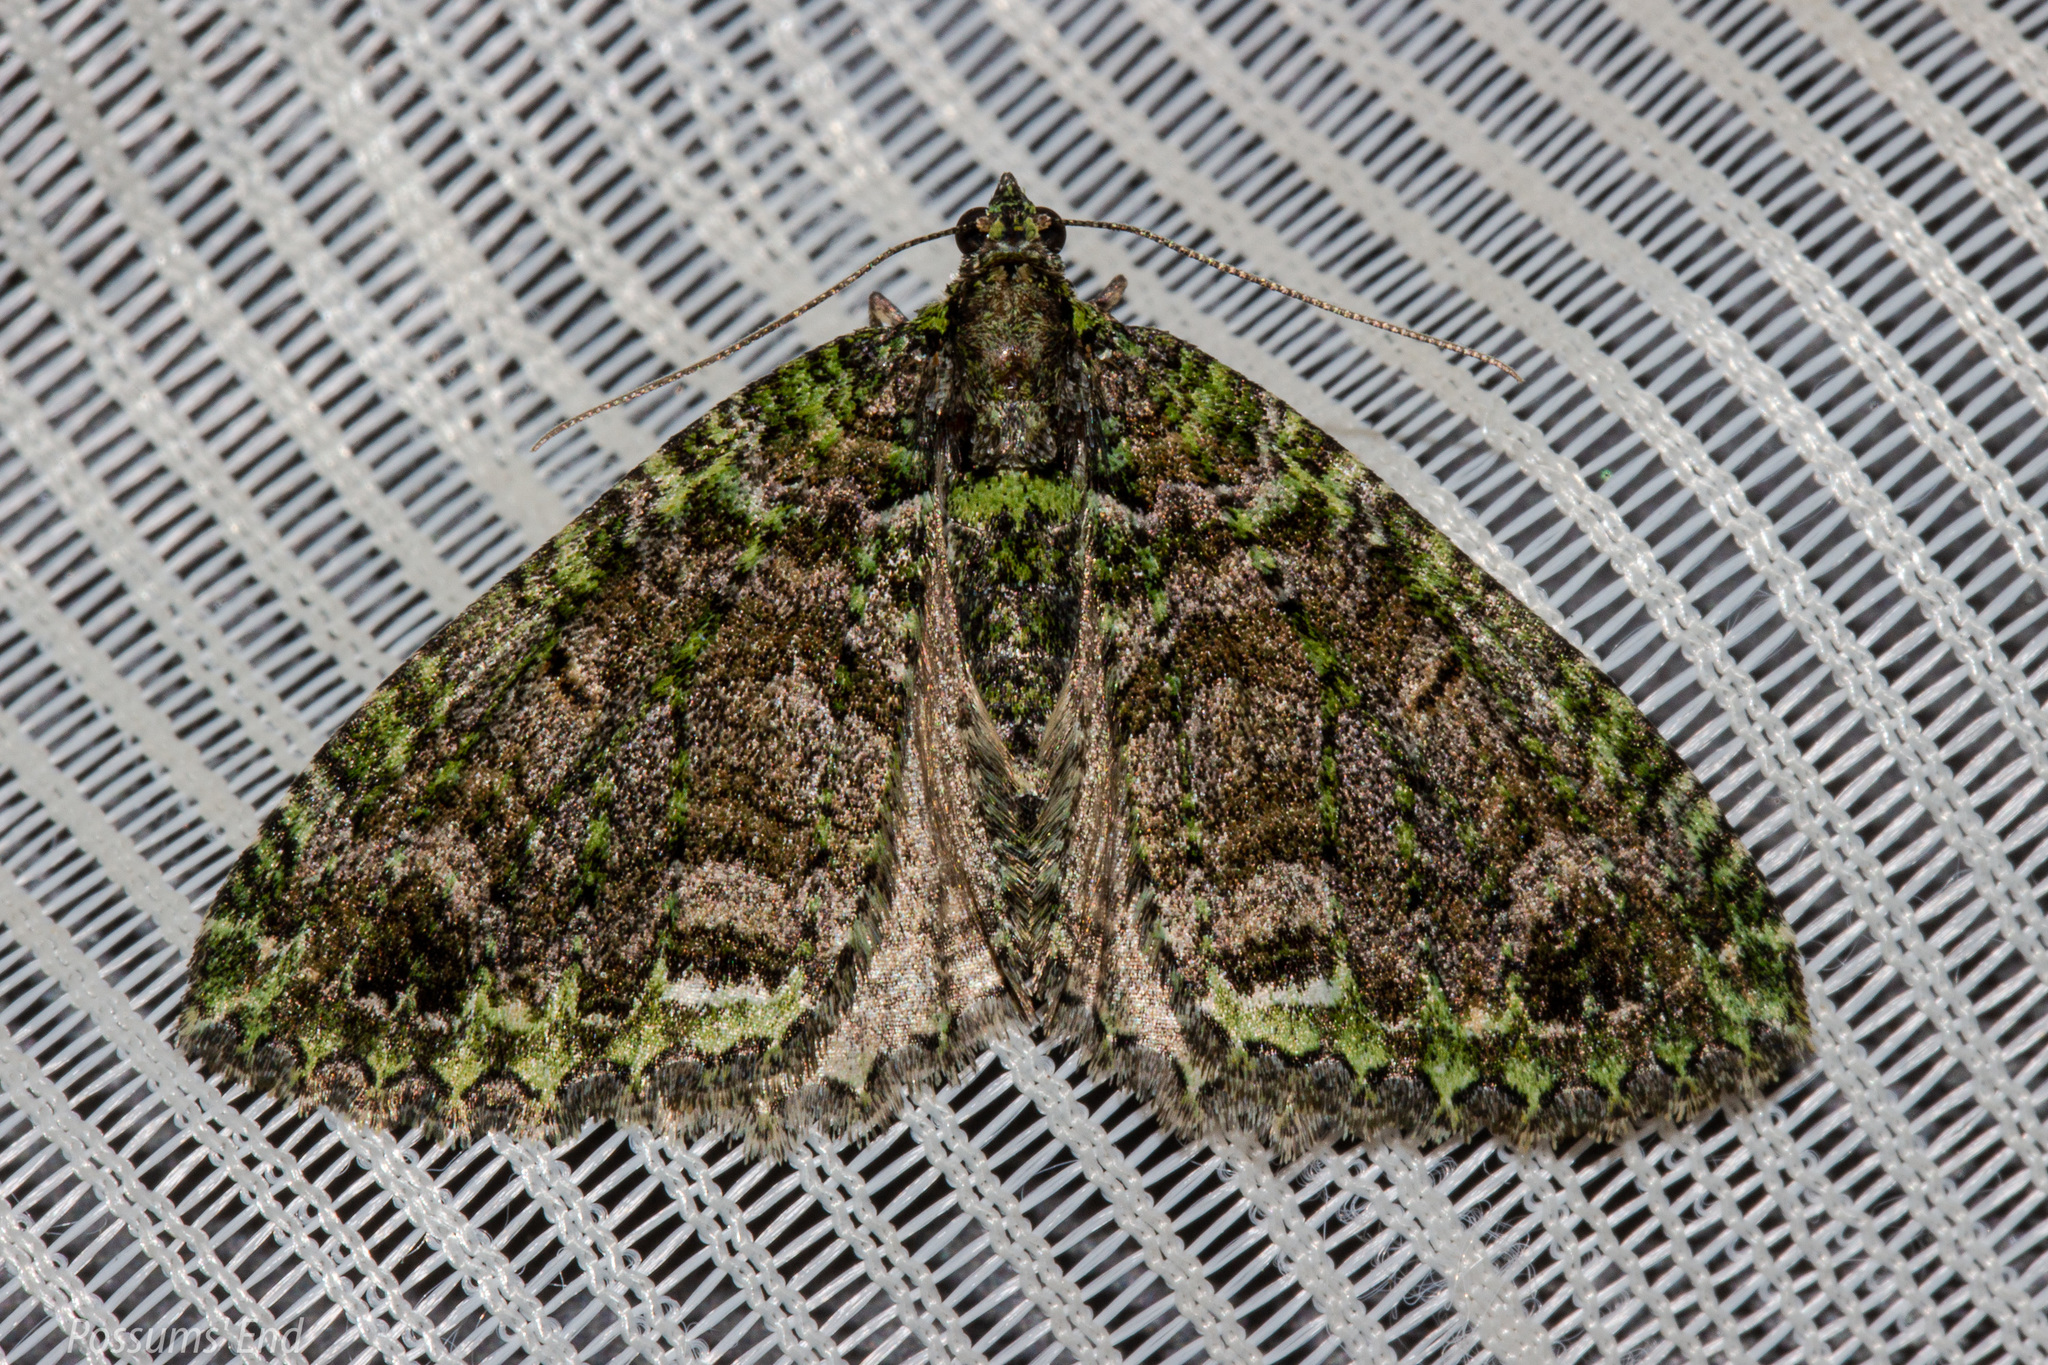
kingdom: Animalia
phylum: Arthropoda
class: Insecta
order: Lepidoptera
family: Geometridae
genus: Austrocidaria
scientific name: Austrocidaria similata
